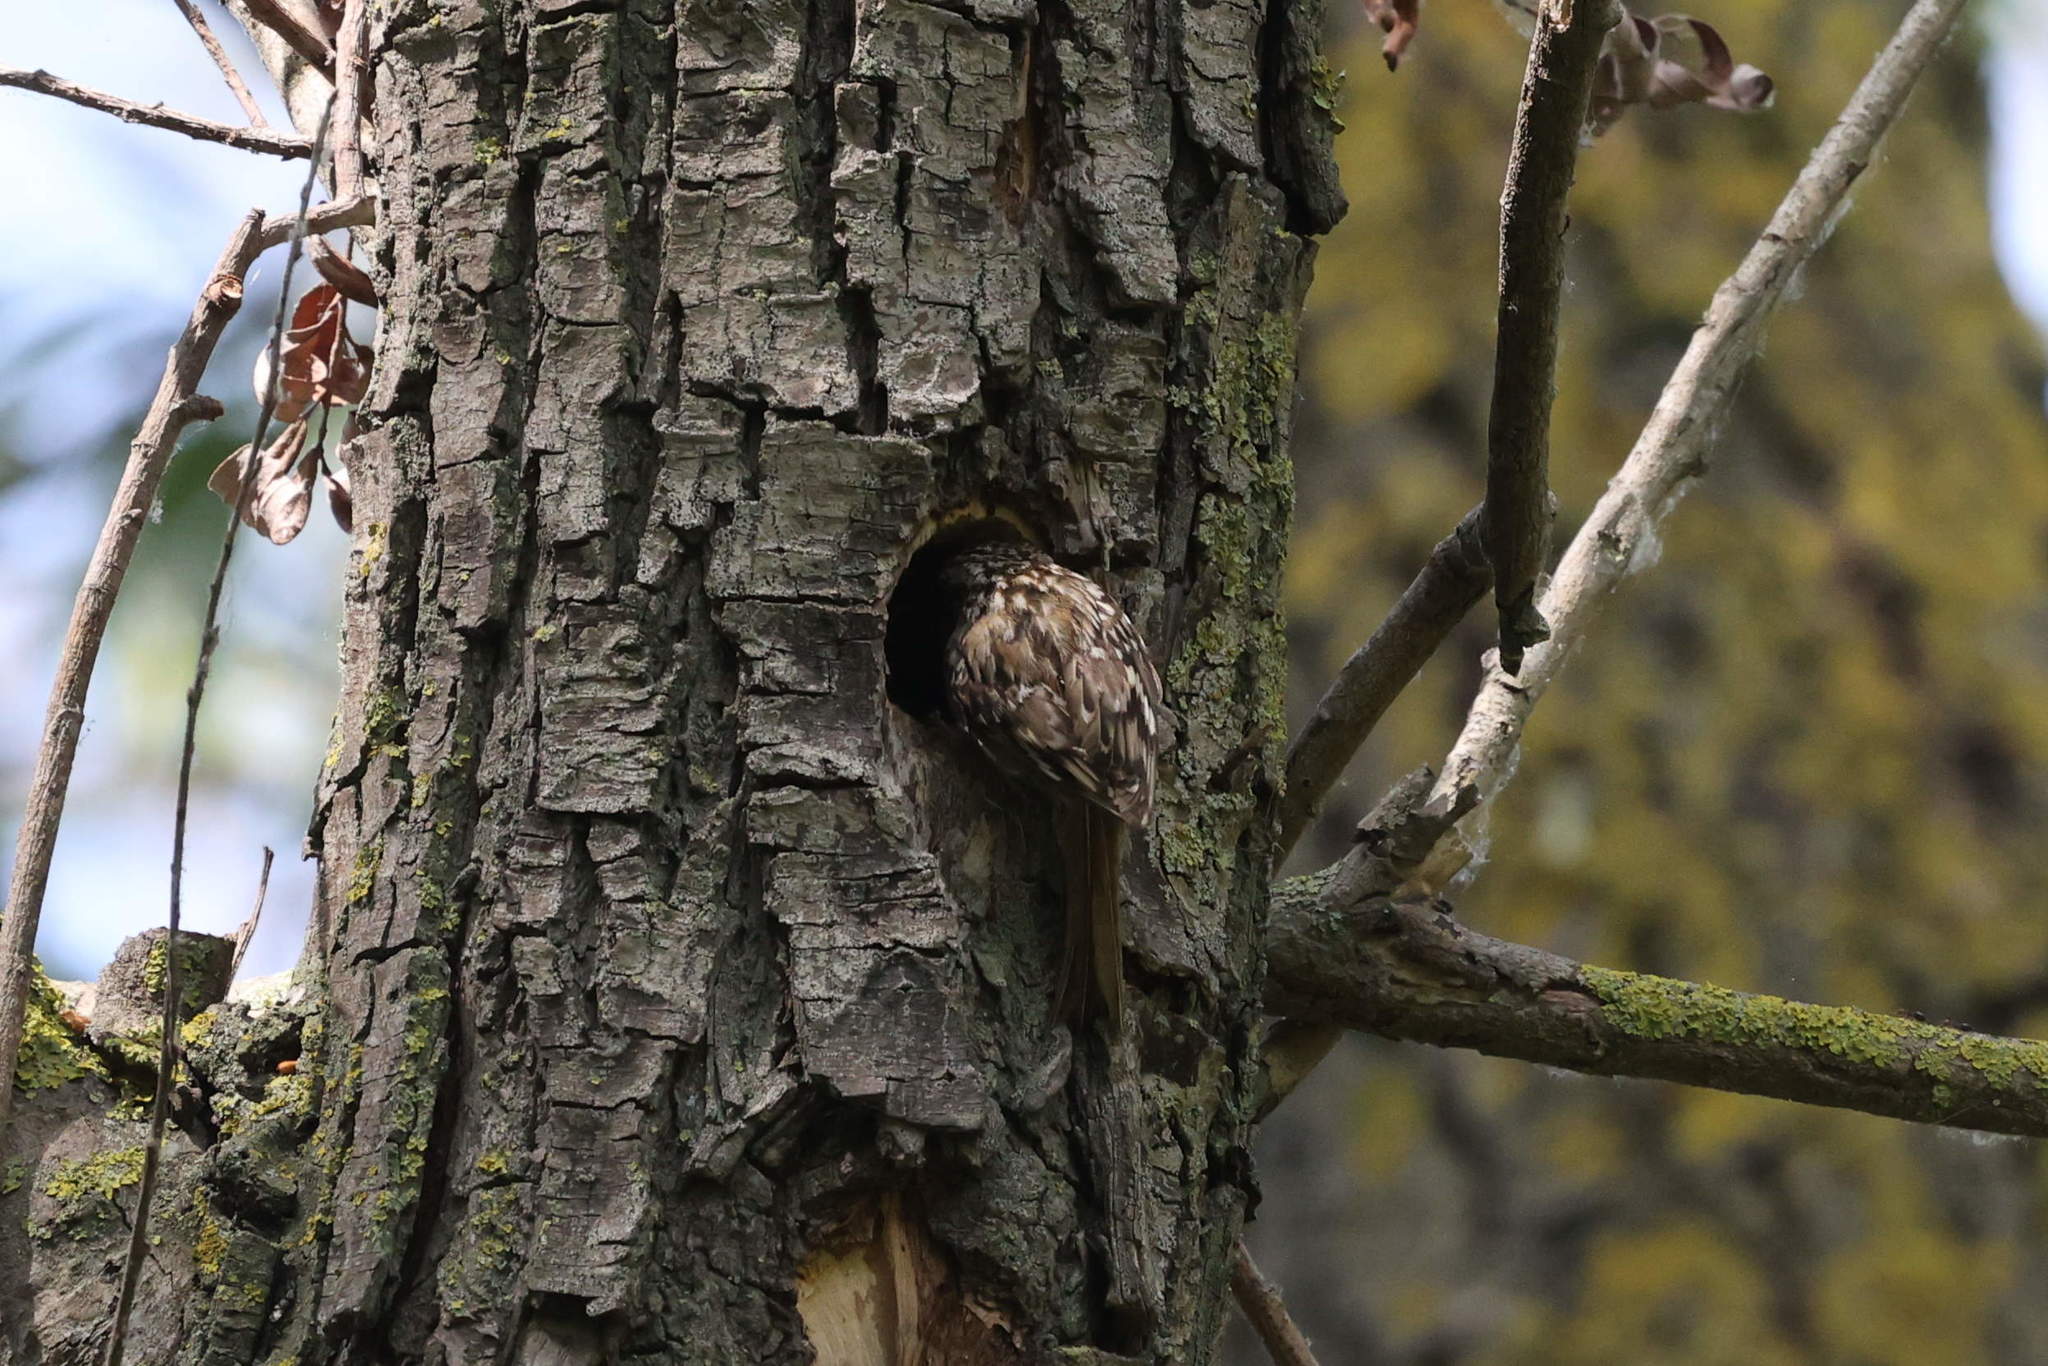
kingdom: Animalia
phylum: Chordata
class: Aves
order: Passeriformes
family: Certhiidae
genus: Certhia
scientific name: Certhia brachydactyla
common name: Short-toed treecreeper
